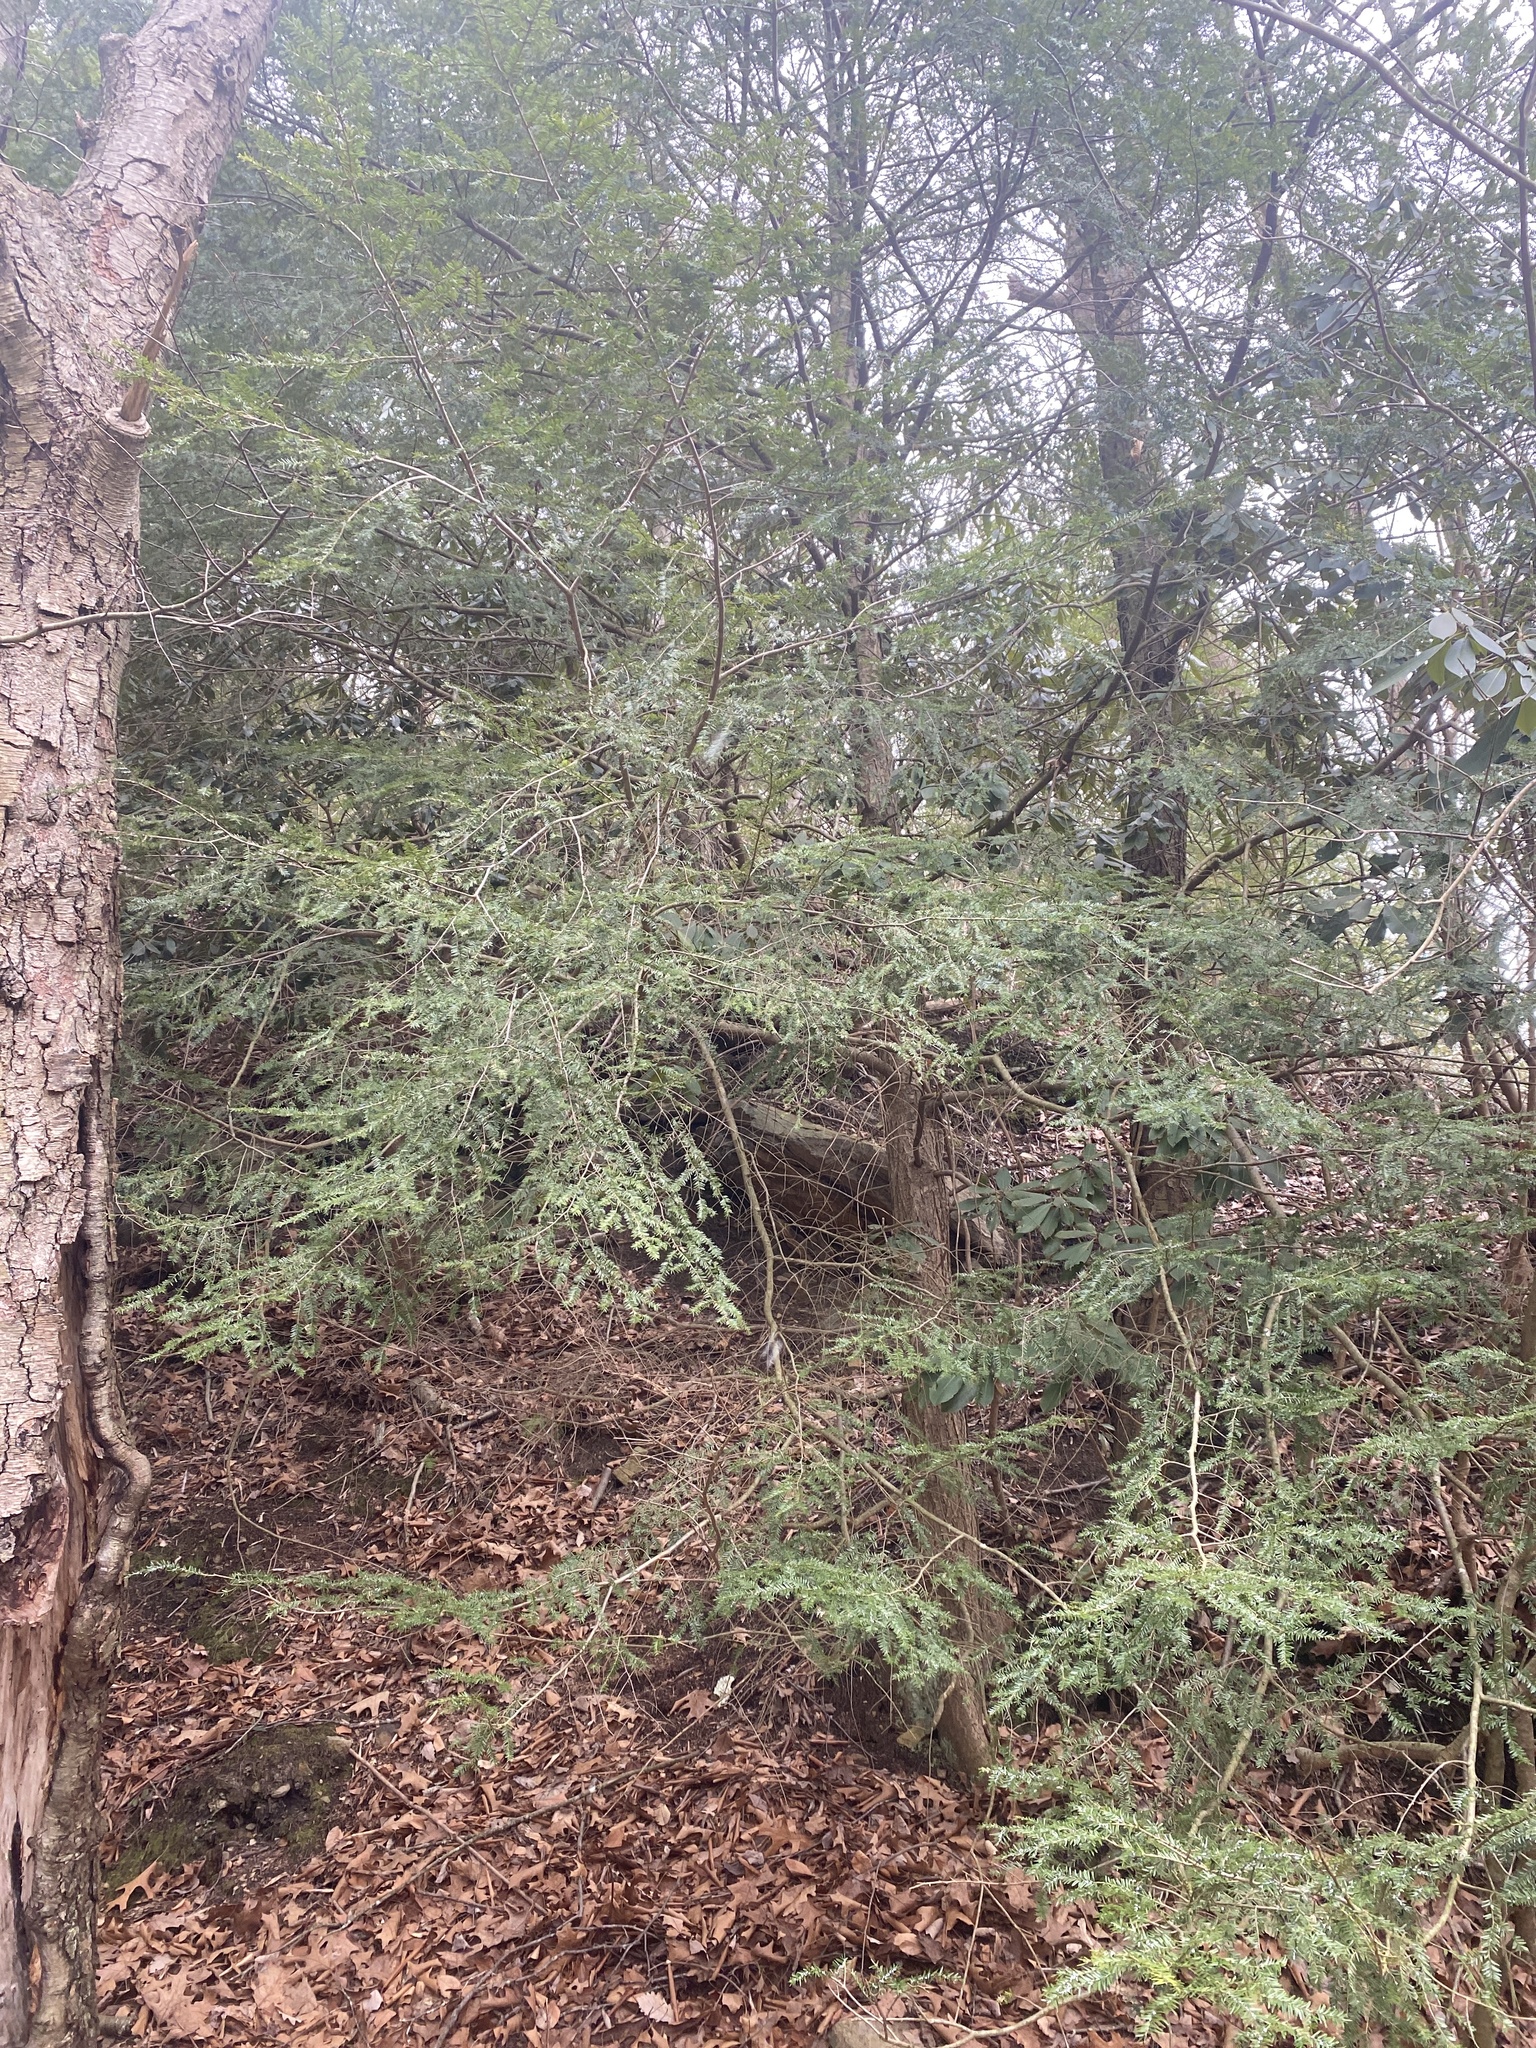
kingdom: Plantae
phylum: Tracheophyta
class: Pinopsida
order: Pinales
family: Pinaceae
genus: Tsuga
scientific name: Tsuga canadensis
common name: Eastern hemlock
